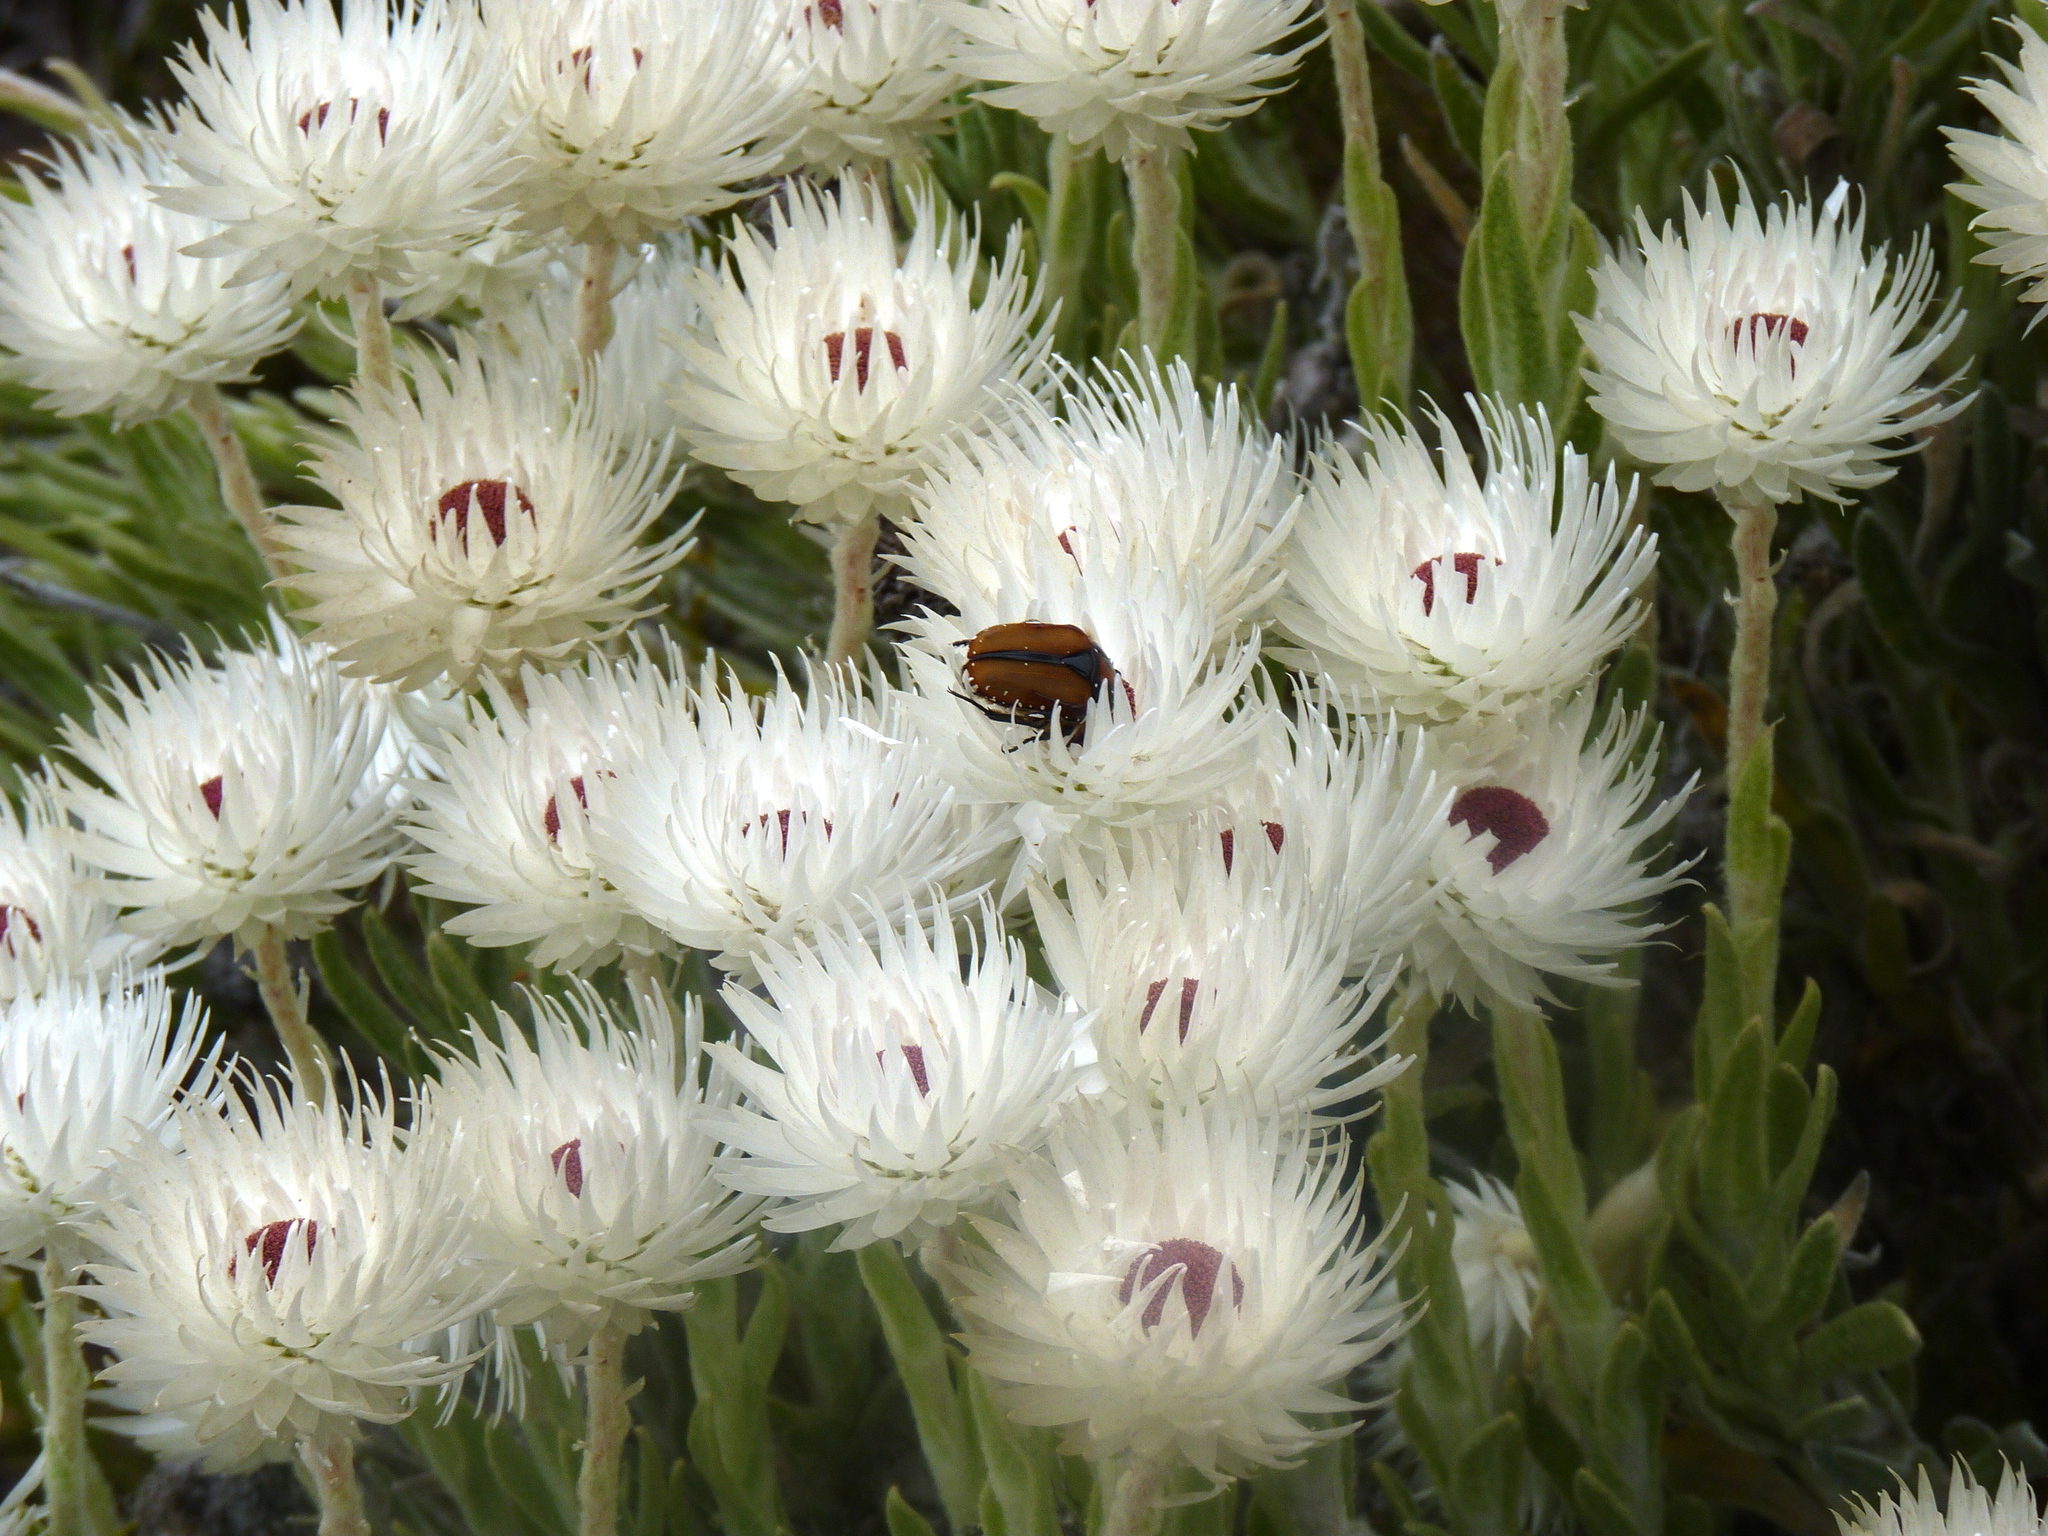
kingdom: Plantae
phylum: Tracheophyta
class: Magnoliopsida
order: Asterales
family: Asteraceae
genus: Syncarpha
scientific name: Syncarpha vestita
